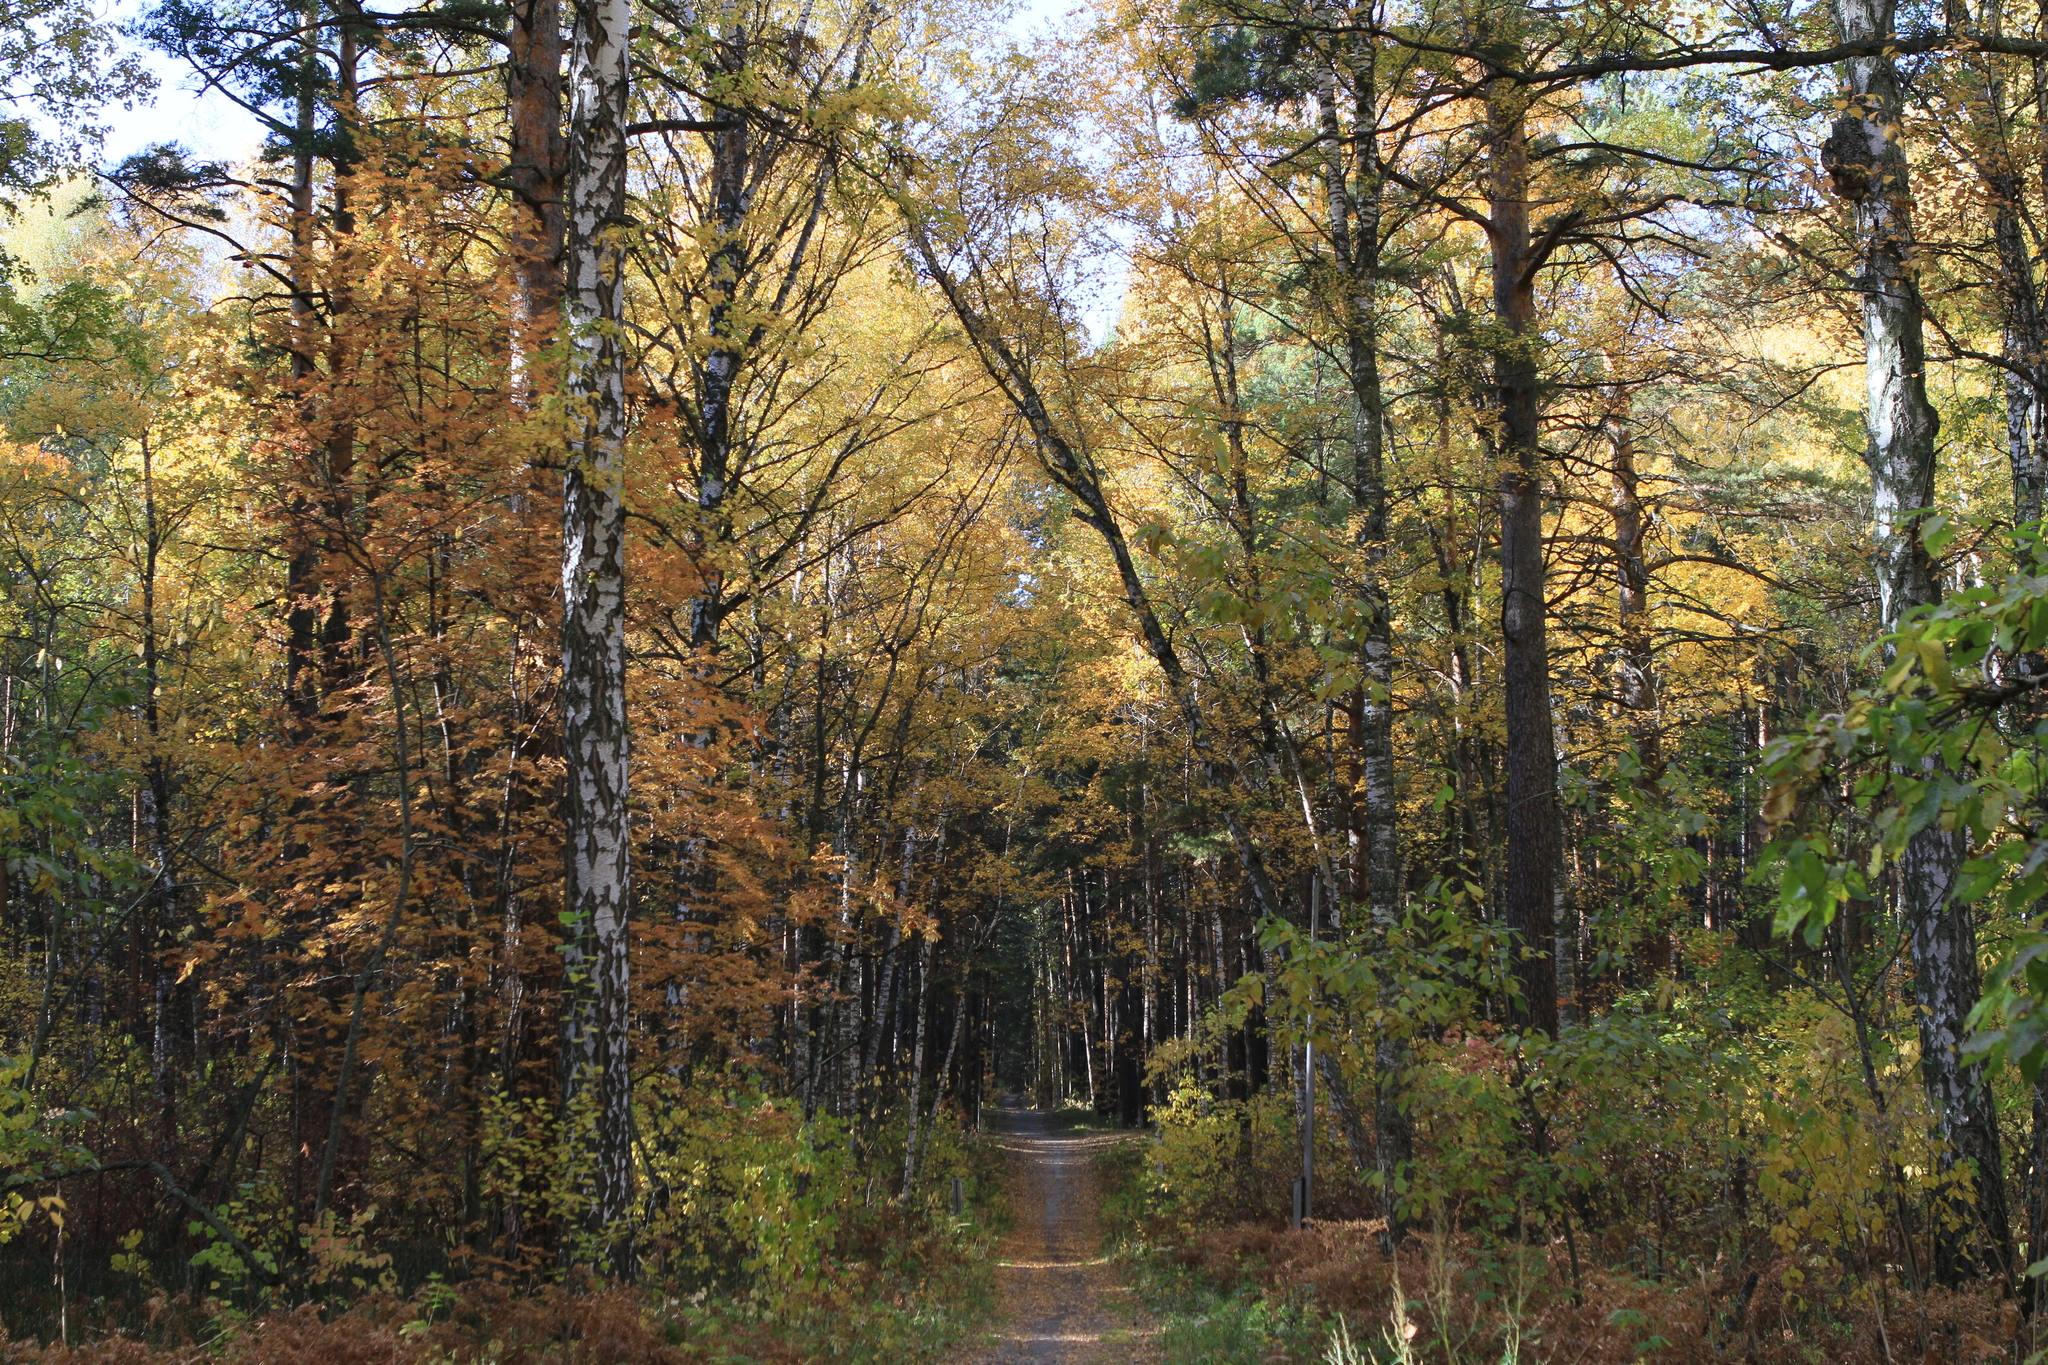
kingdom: Plantae
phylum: Tracheophyta
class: Magnoliopsida
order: Fagales
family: Betulaceae
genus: Betula
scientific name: Betula pendula
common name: Silver birch
